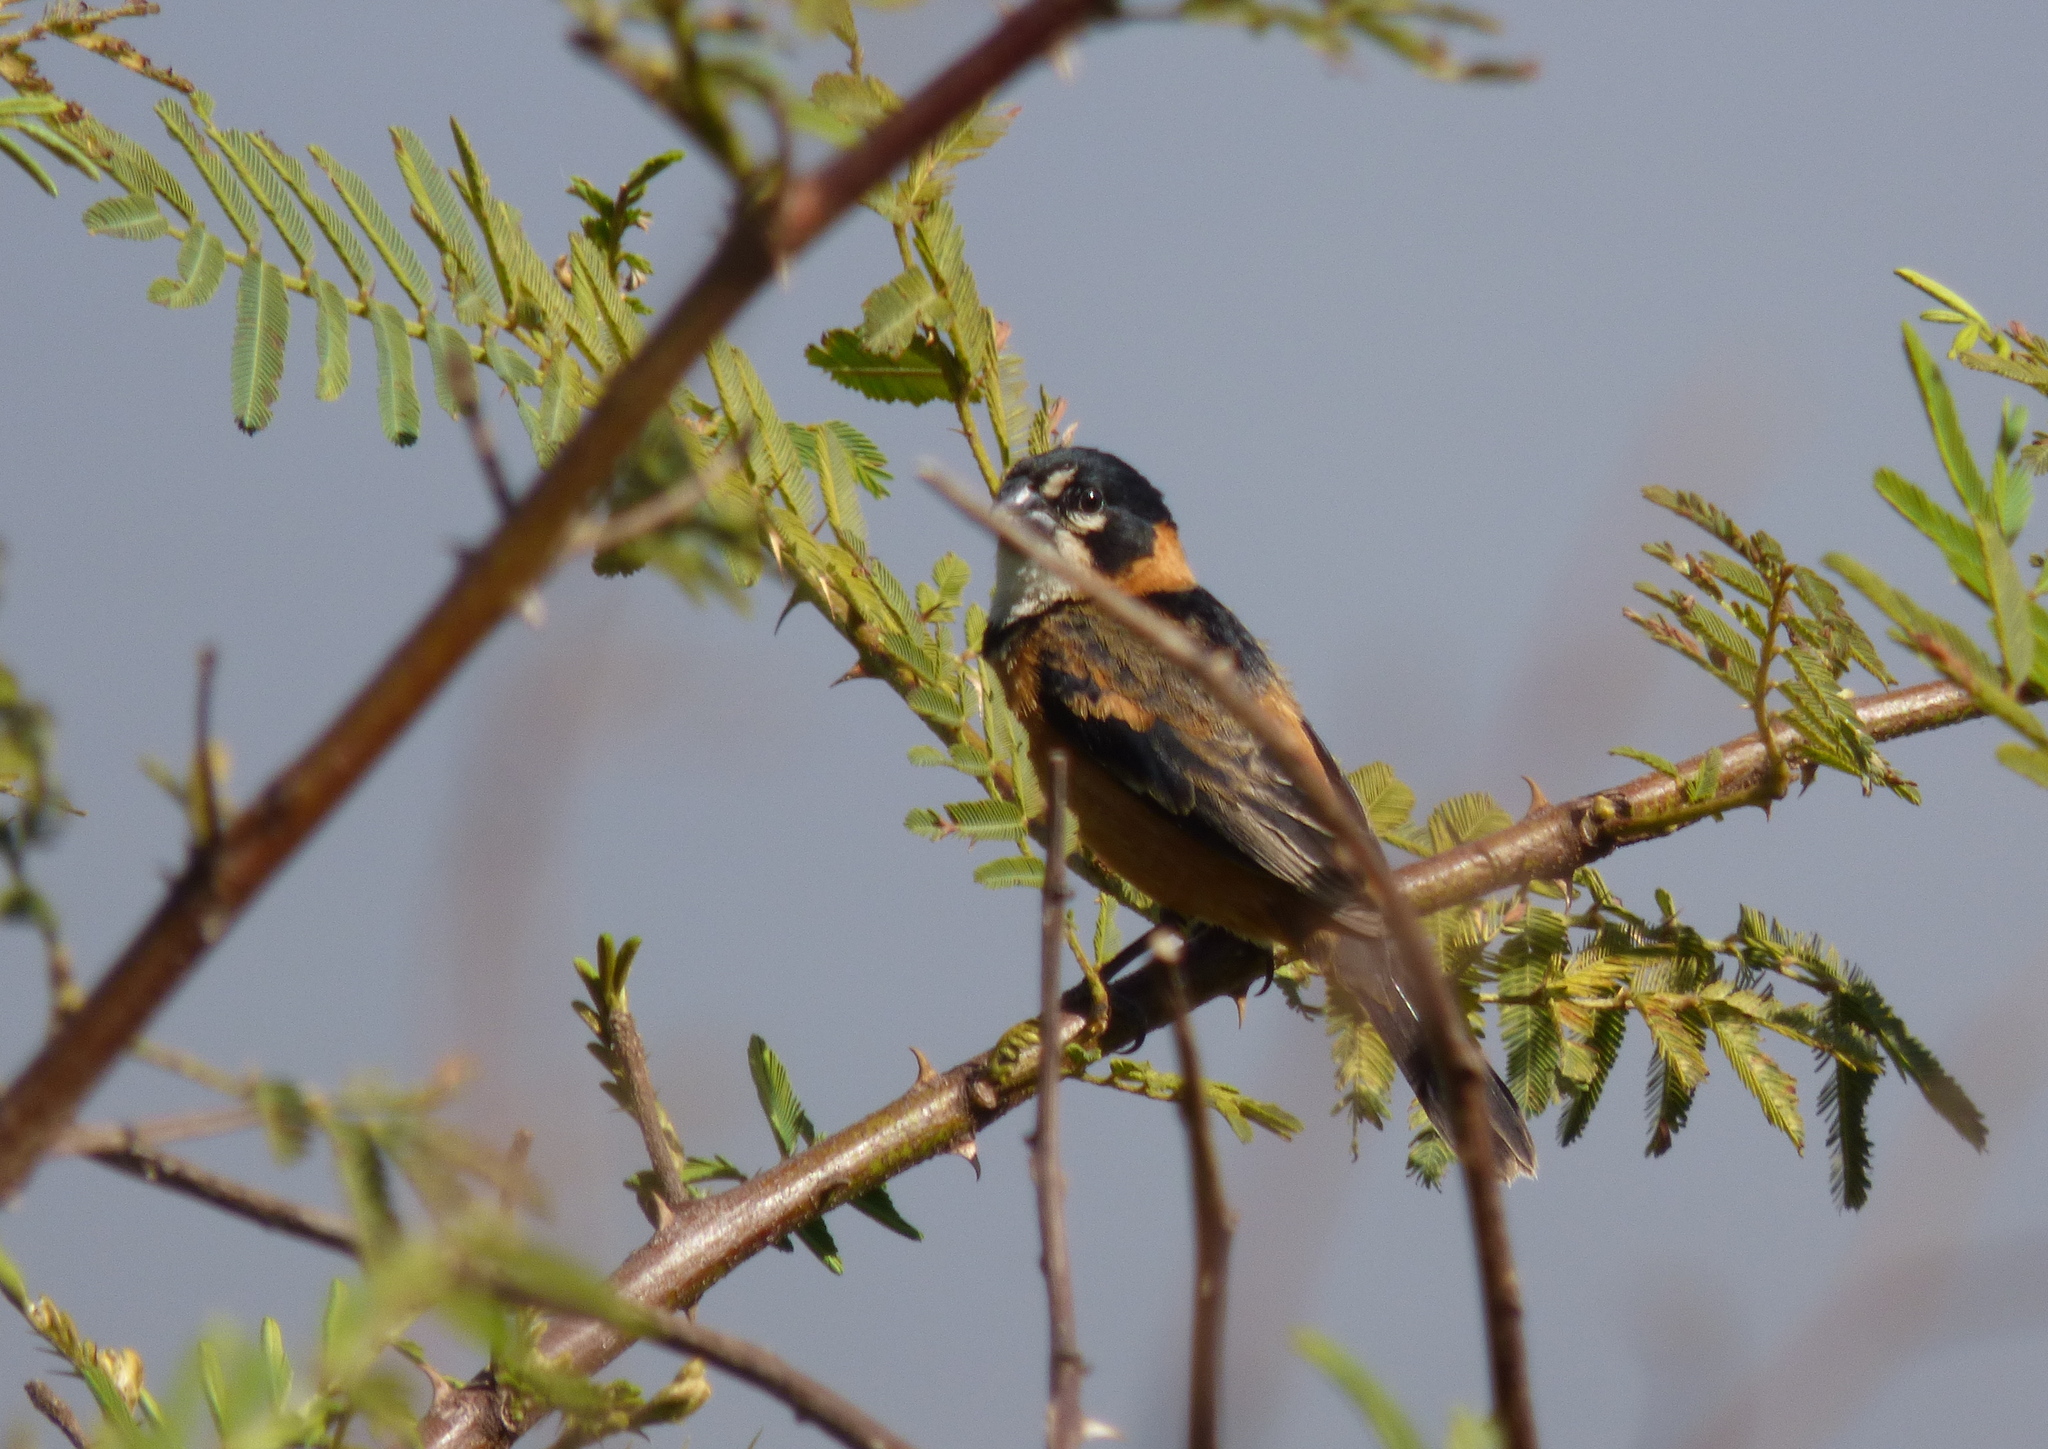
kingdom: Animalia
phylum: Chordata
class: Aves
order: Passeriformes
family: Thraupidae
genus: Sporophila
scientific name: Sporophila collaris
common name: Rusty-collared seedeater
